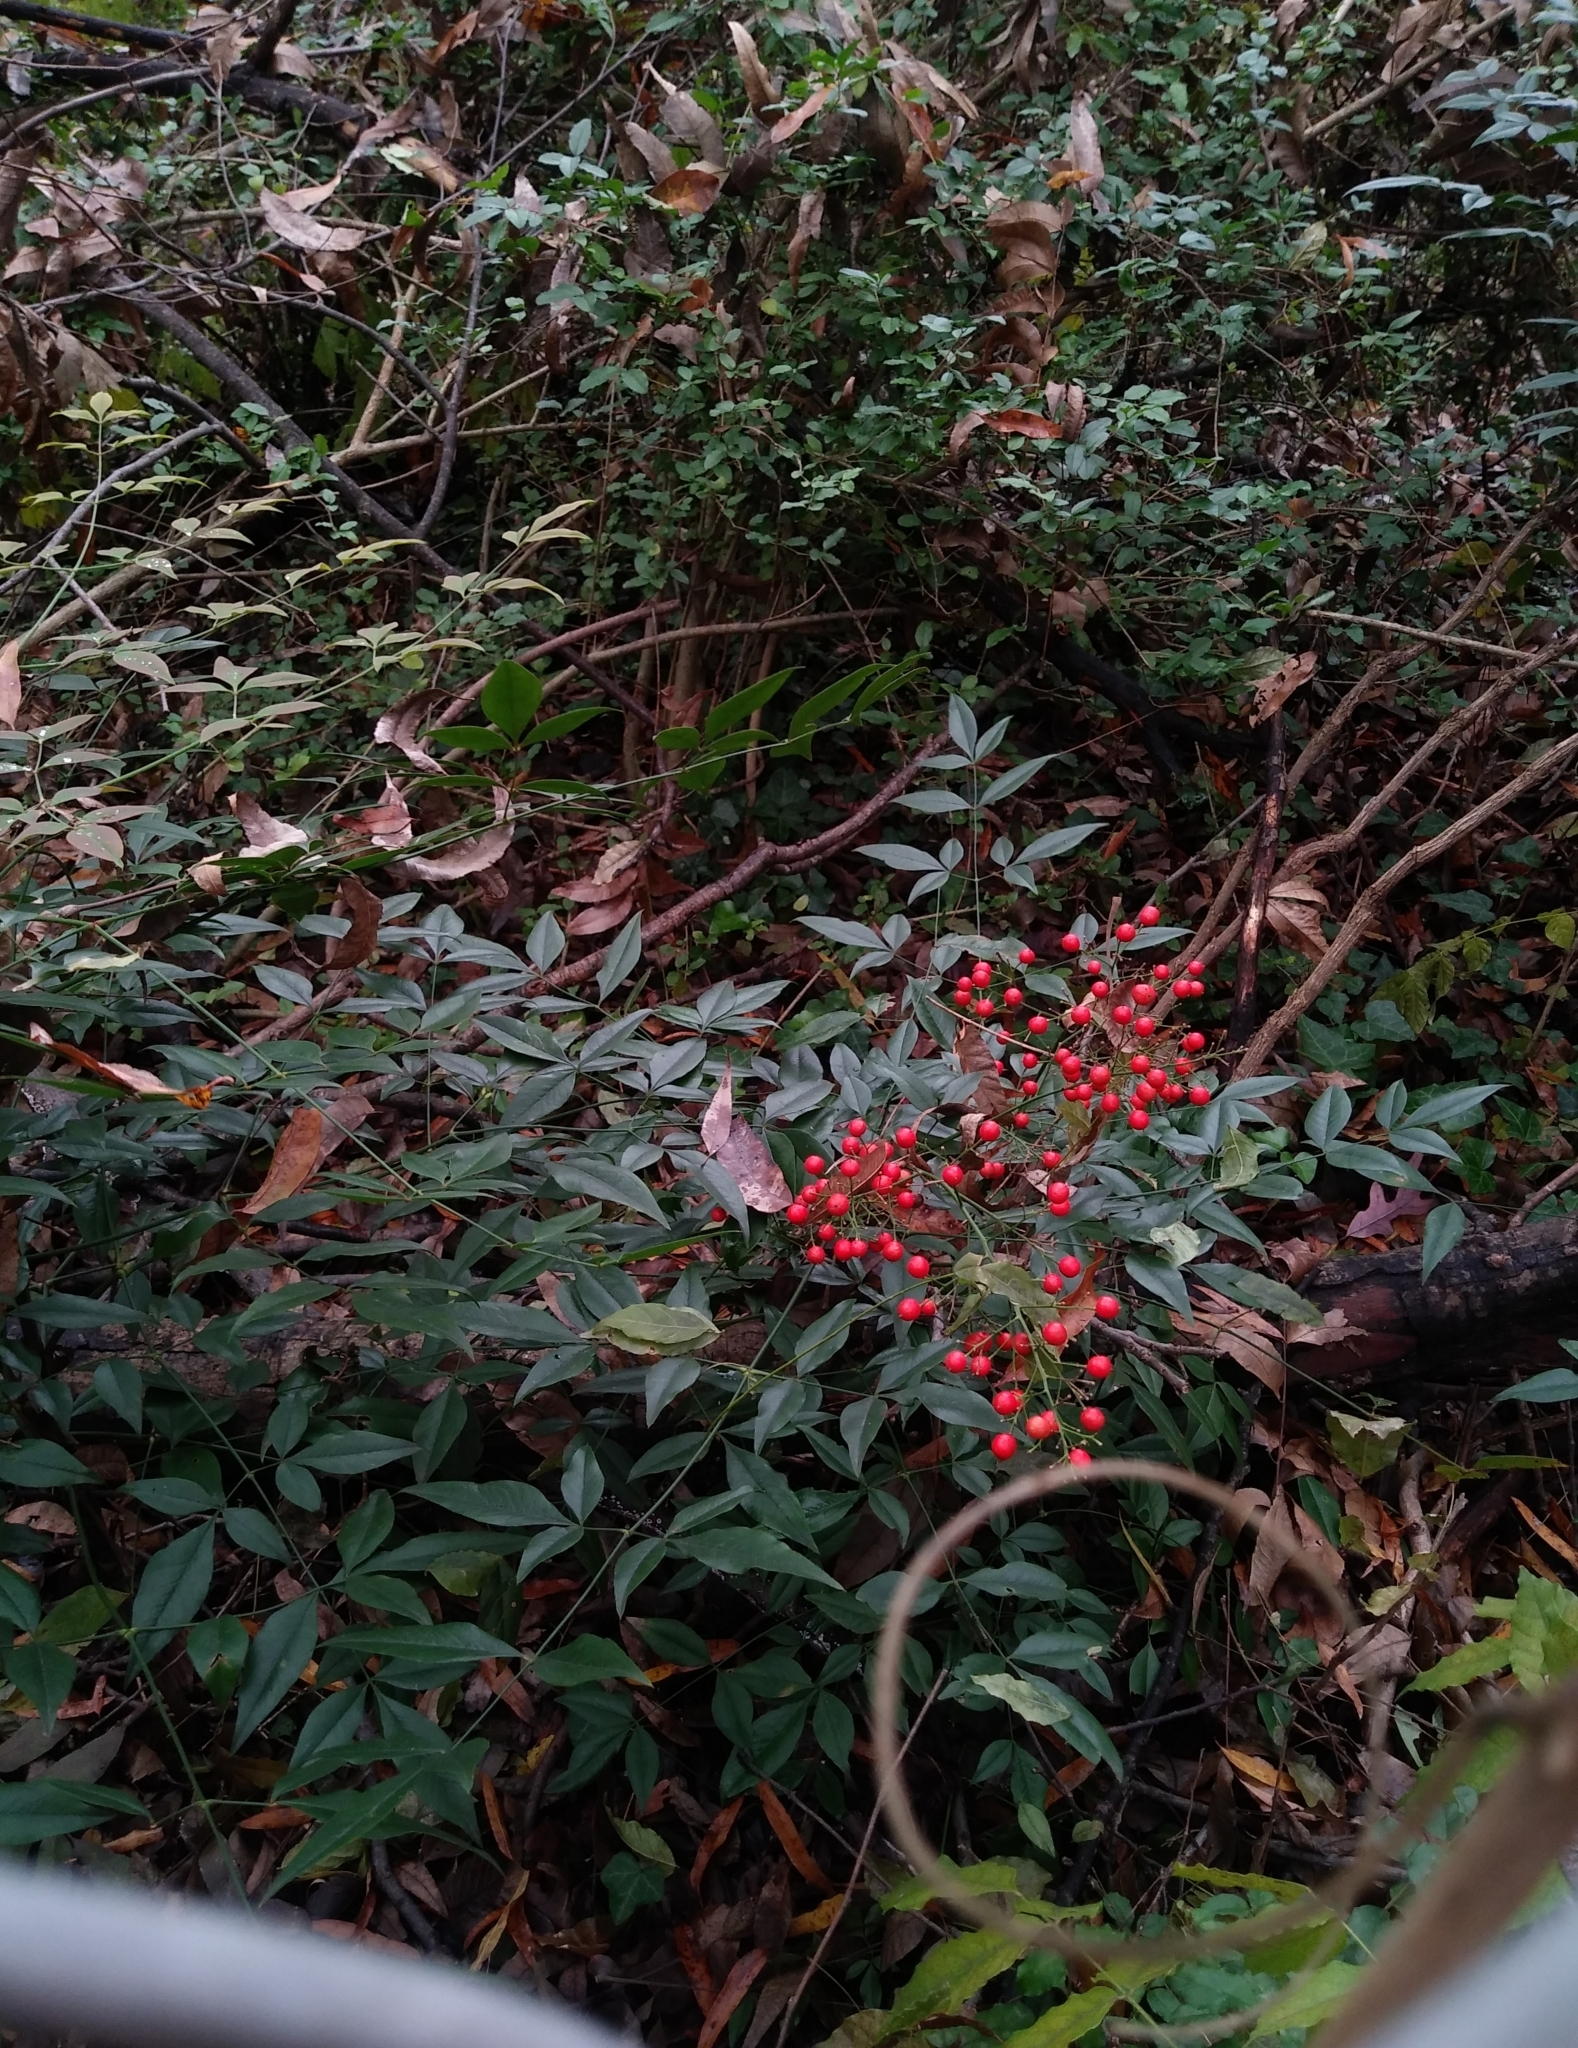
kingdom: Plantae
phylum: Tracheophyta
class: Magnoliopsida
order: Ranunculales
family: Berberidaceae
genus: Nandina
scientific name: Nandina domestica
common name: Sacred bamboo
